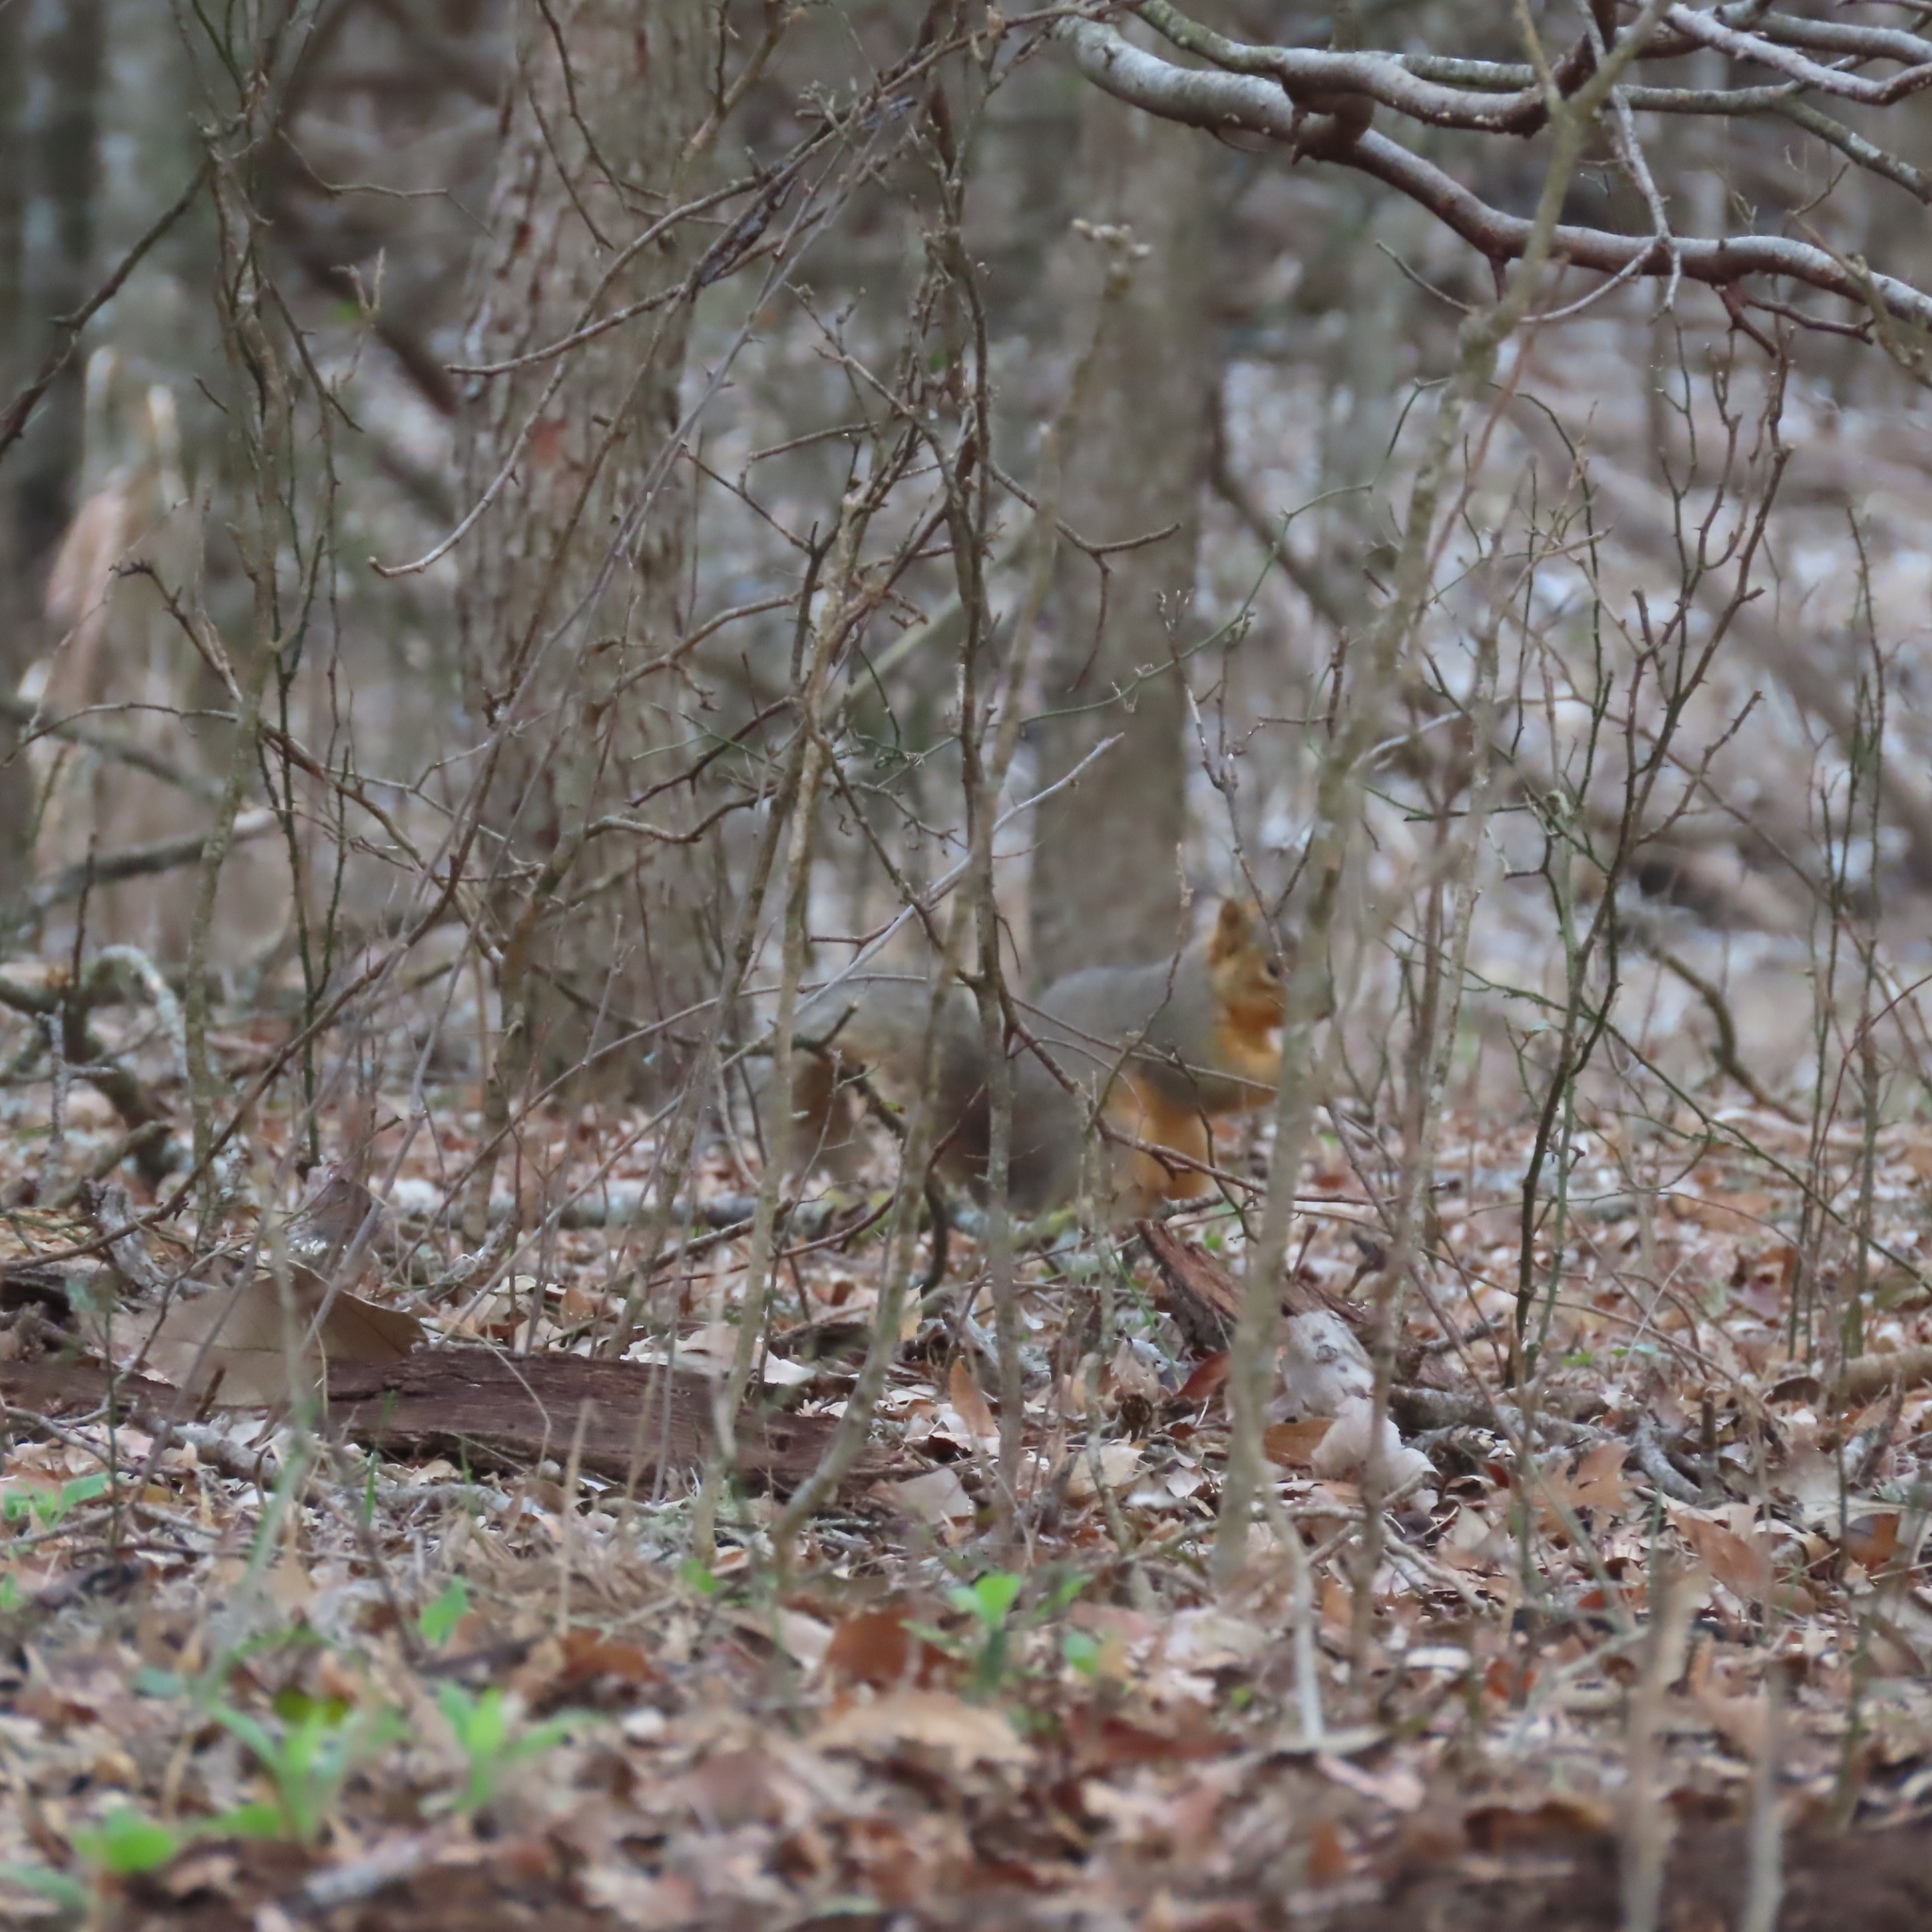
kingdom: Animalia
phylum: Chordata
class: Mammalia
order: Rodentia
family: Sciuridae
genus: Sciurus
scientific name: Sciurus niger
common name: Fox squirrel
